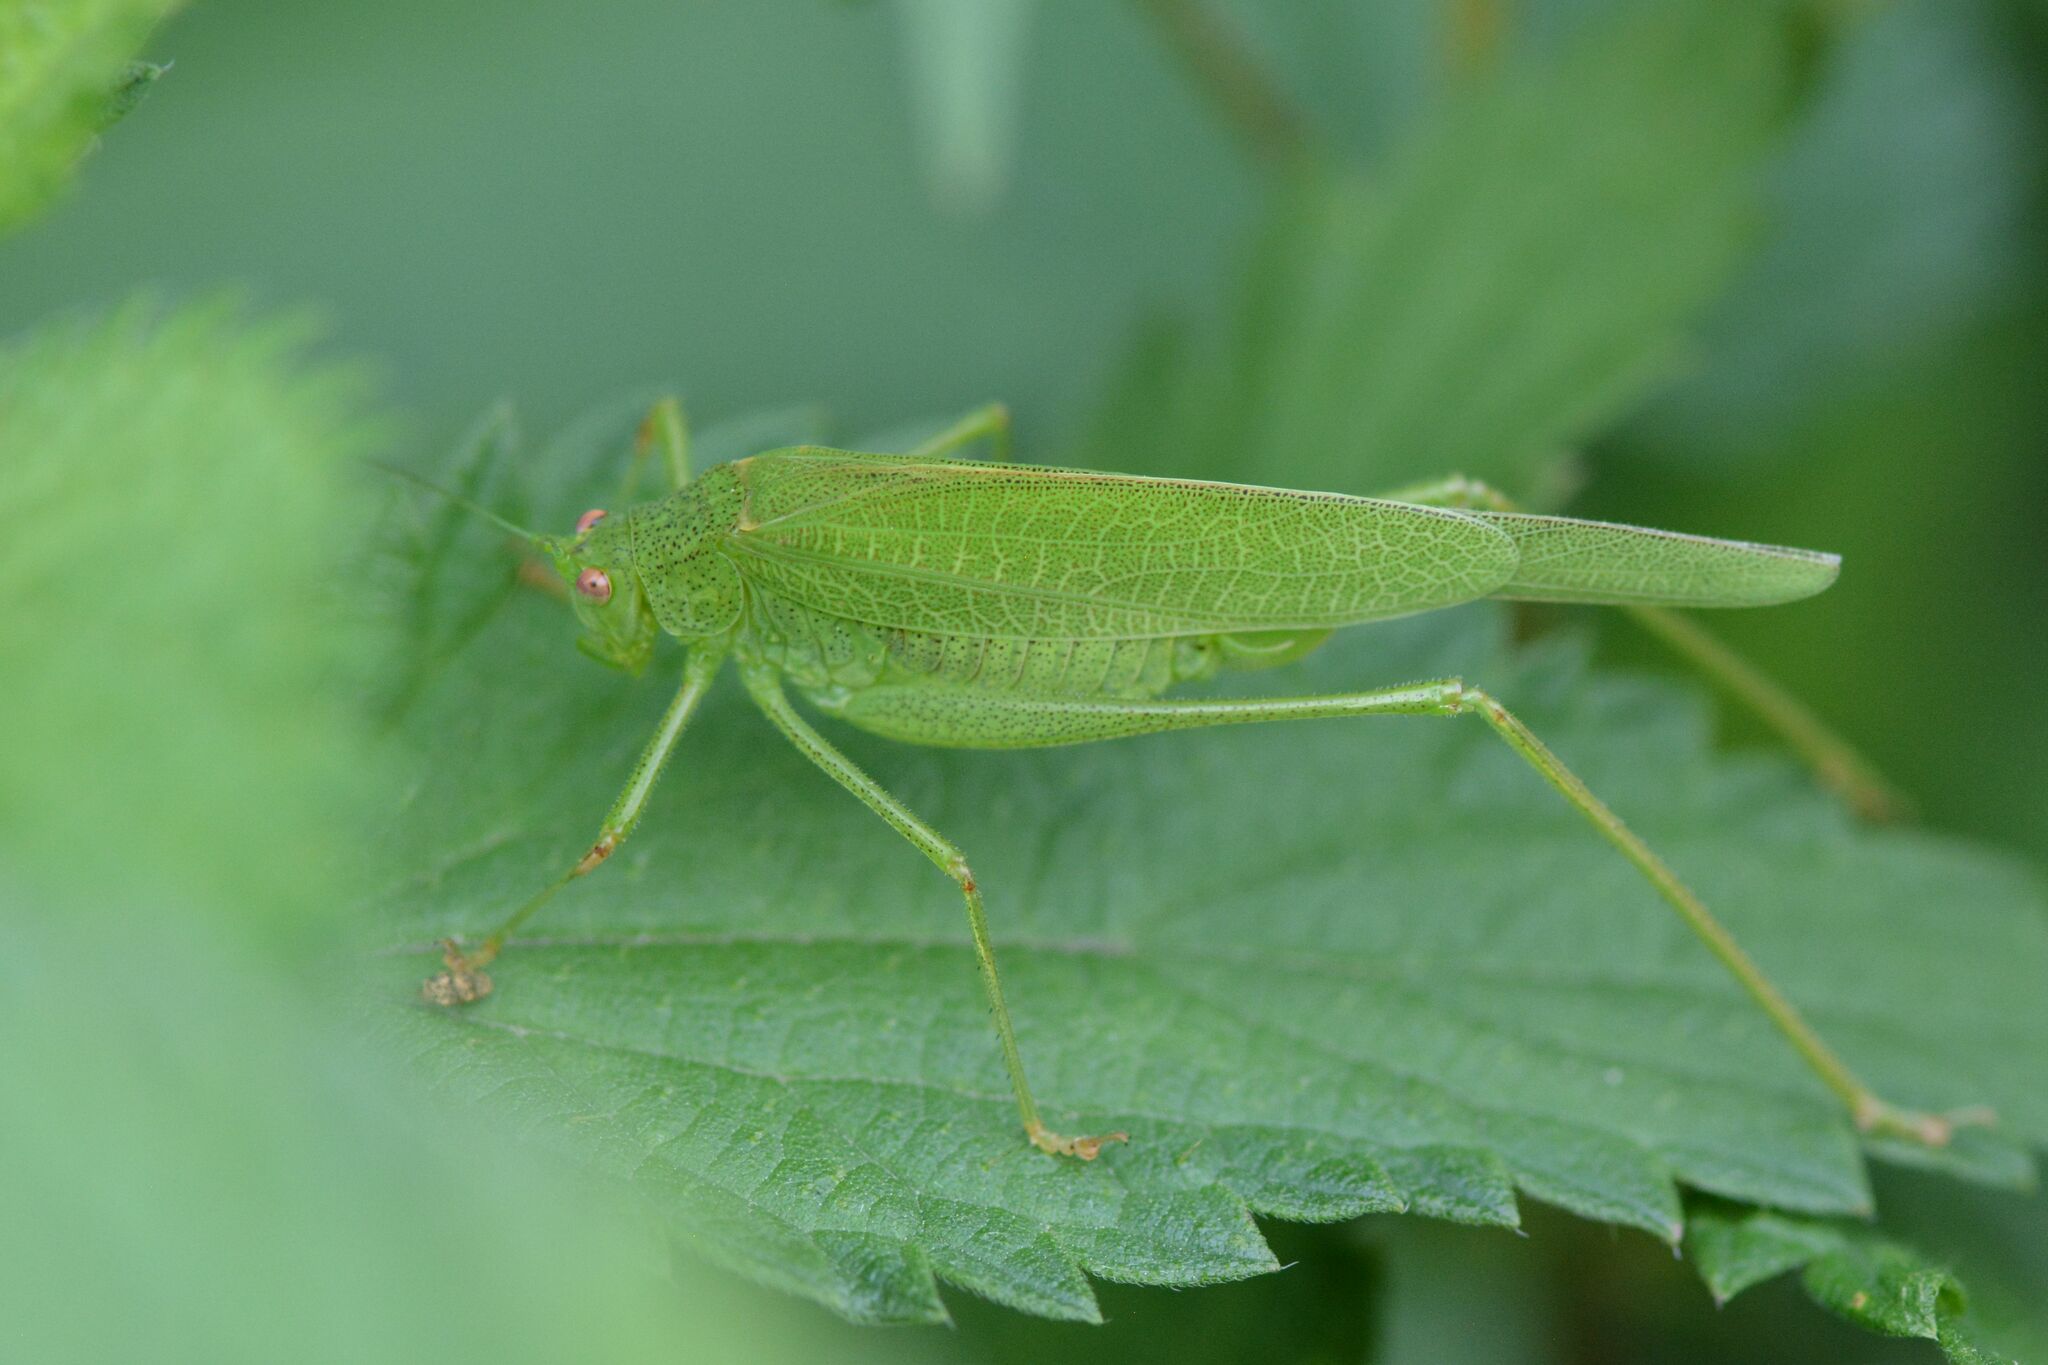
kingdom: Animalia
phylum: Arthropoda
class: Insecta
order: Orthoptera
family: Tettigoniidae
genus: Phaneroptera
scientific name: Phaneroptera nana
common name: Southern sickle bush-cricket
